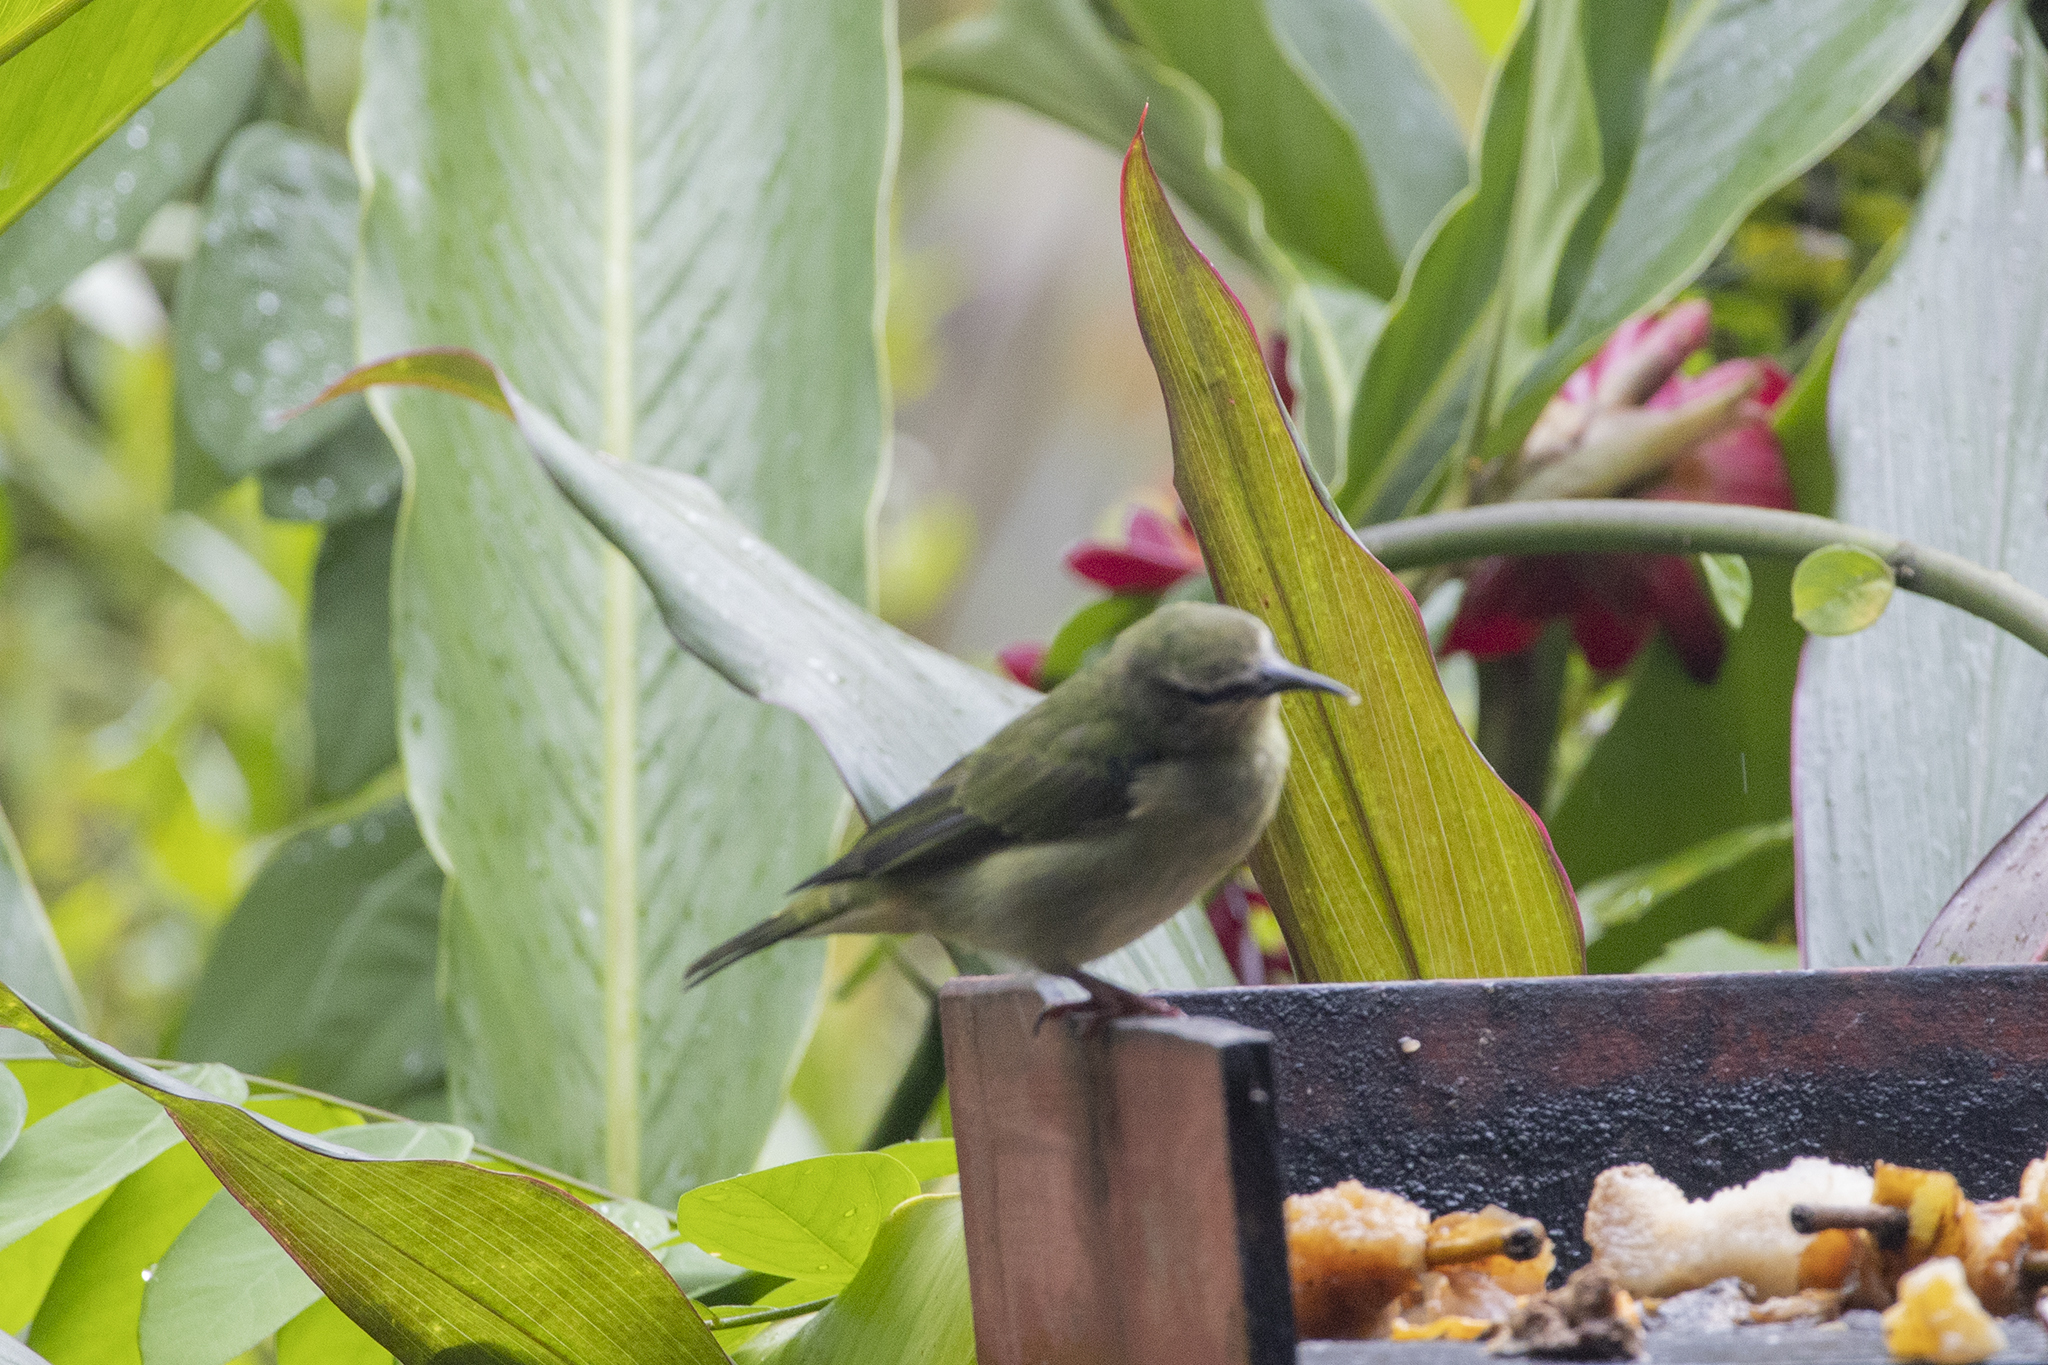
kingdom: Animalia
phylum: Chordata
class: Aves
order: Passeriformes
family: Thraupidae
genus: Cyanerpes
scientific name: Cyanerpes cyaneus
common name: Red-legged honeycreeper
